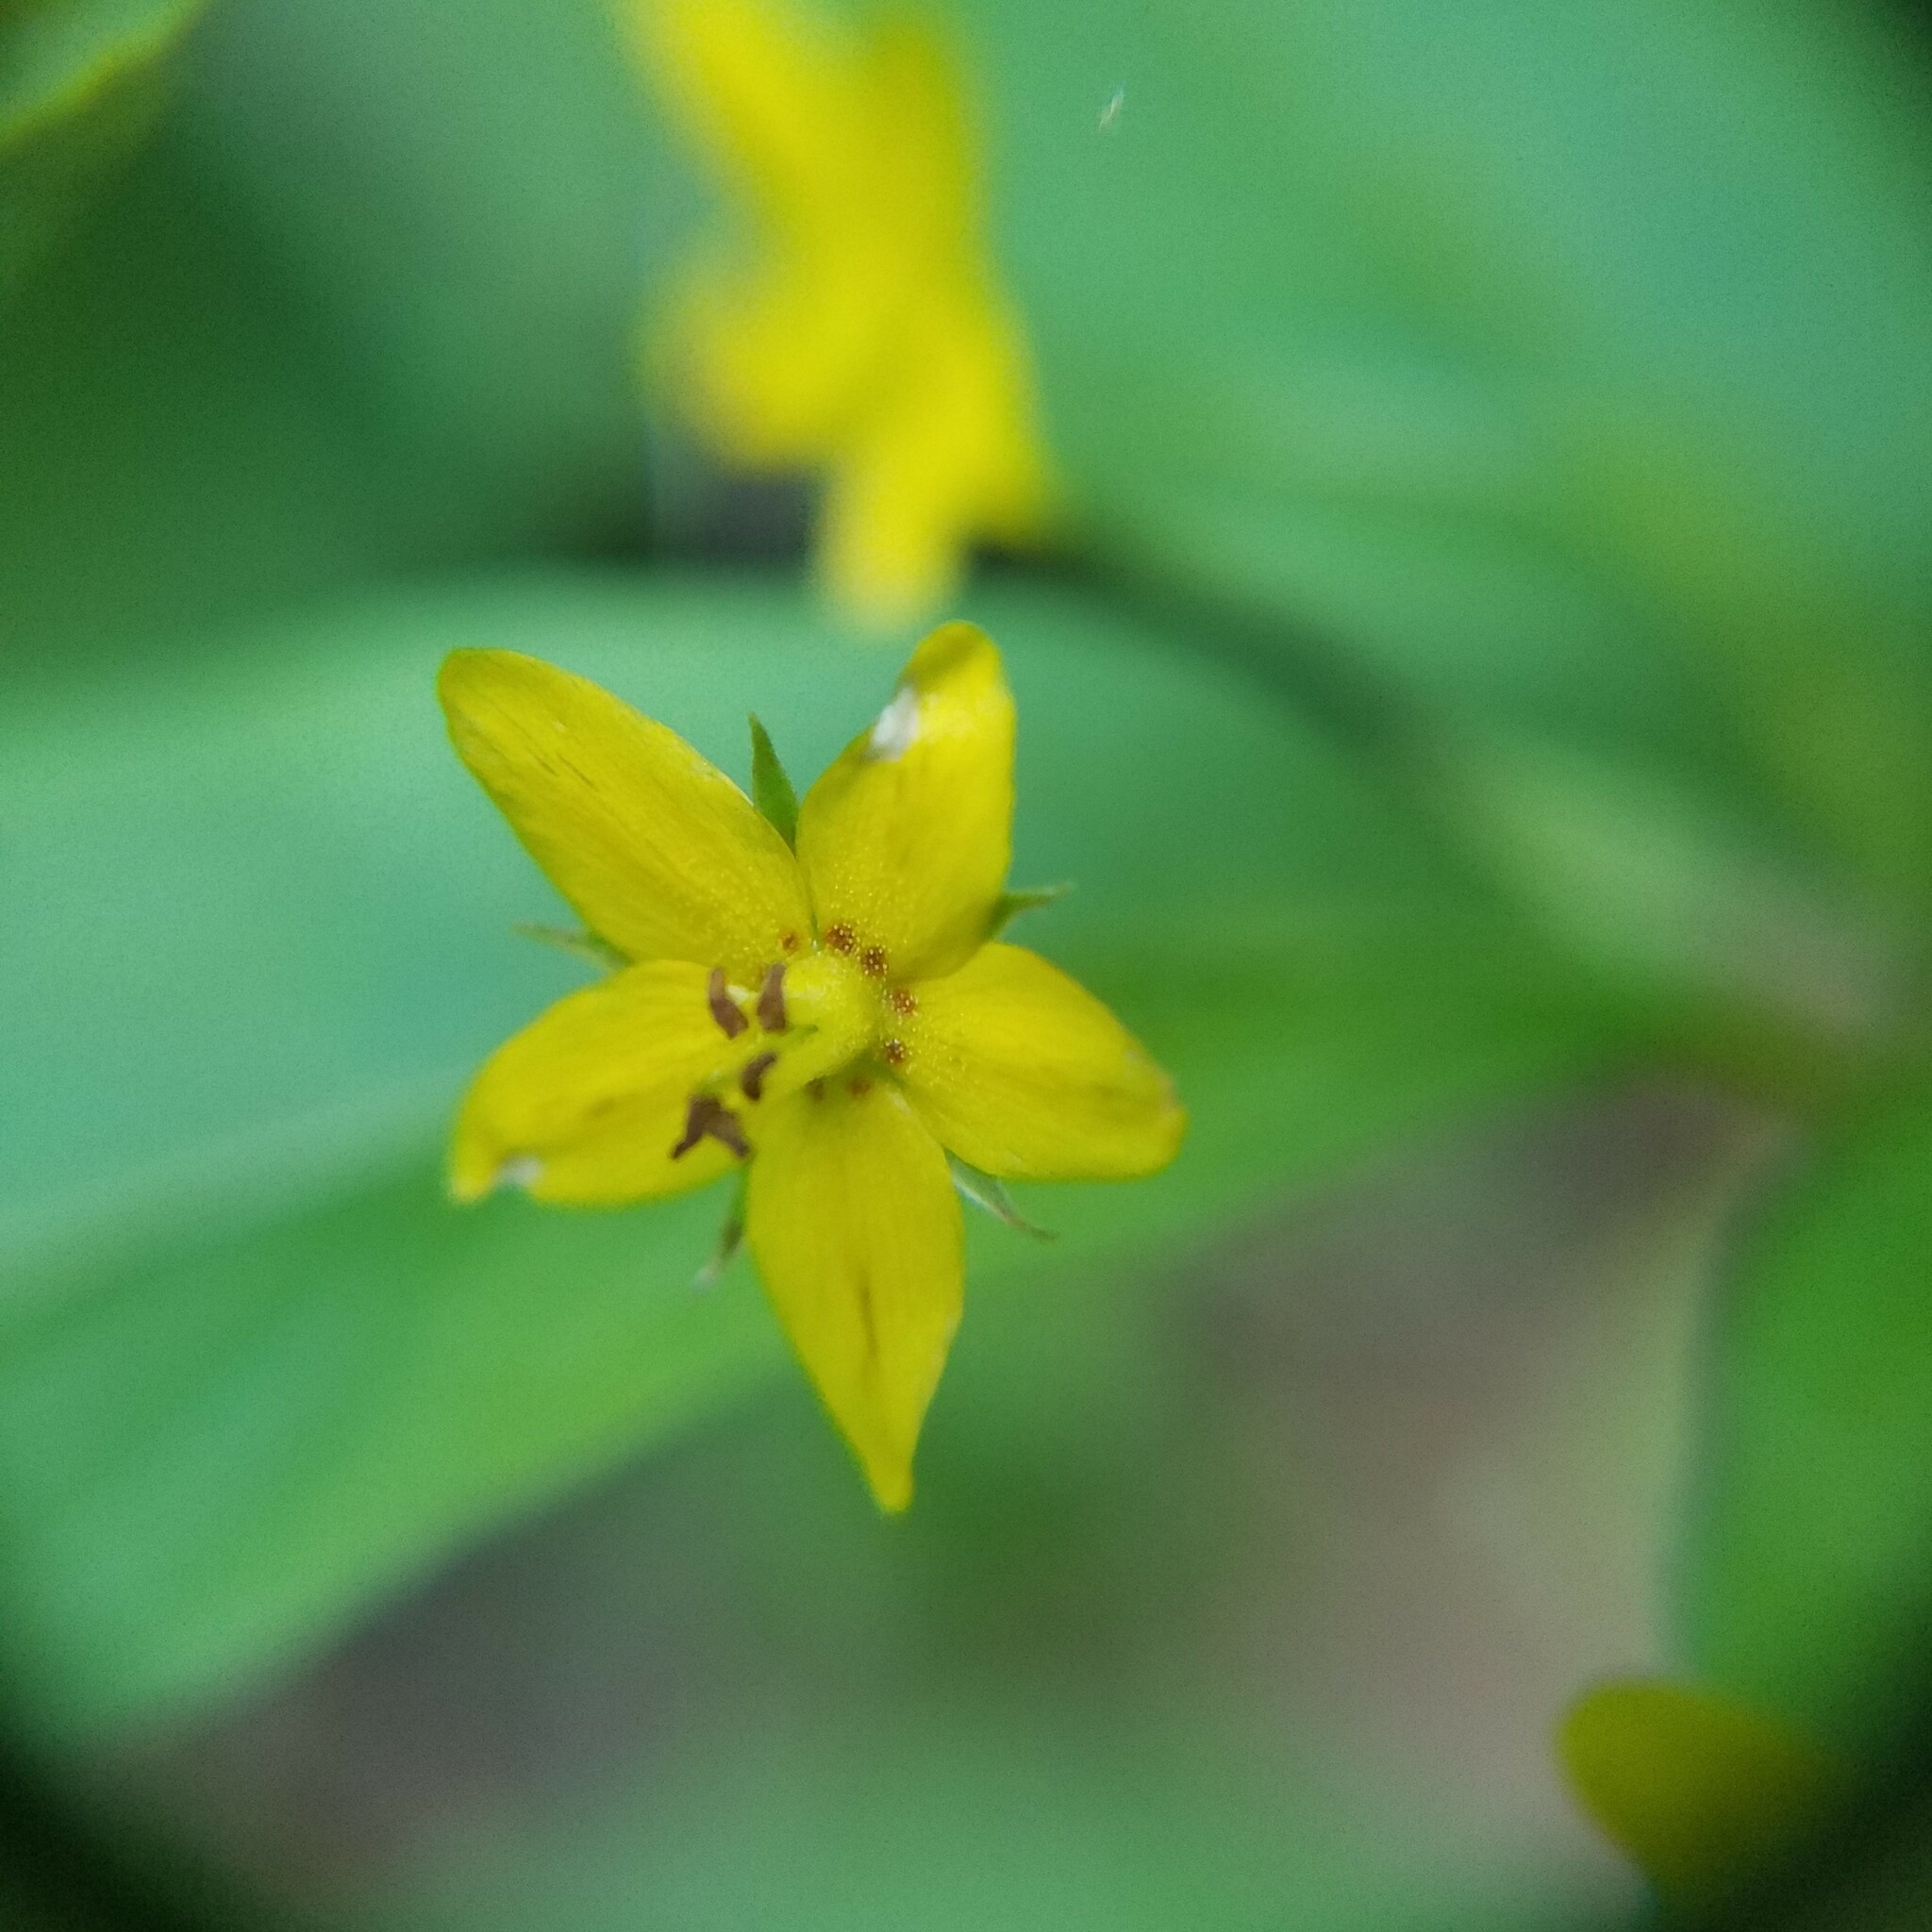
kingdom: Plantae
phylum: Tracheophyta
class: Magnoliopsida
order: Ericales
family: Primulaceae
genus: Lysimachia
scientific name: Lysimachia quadrifolia
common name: Whorled loosestrife
